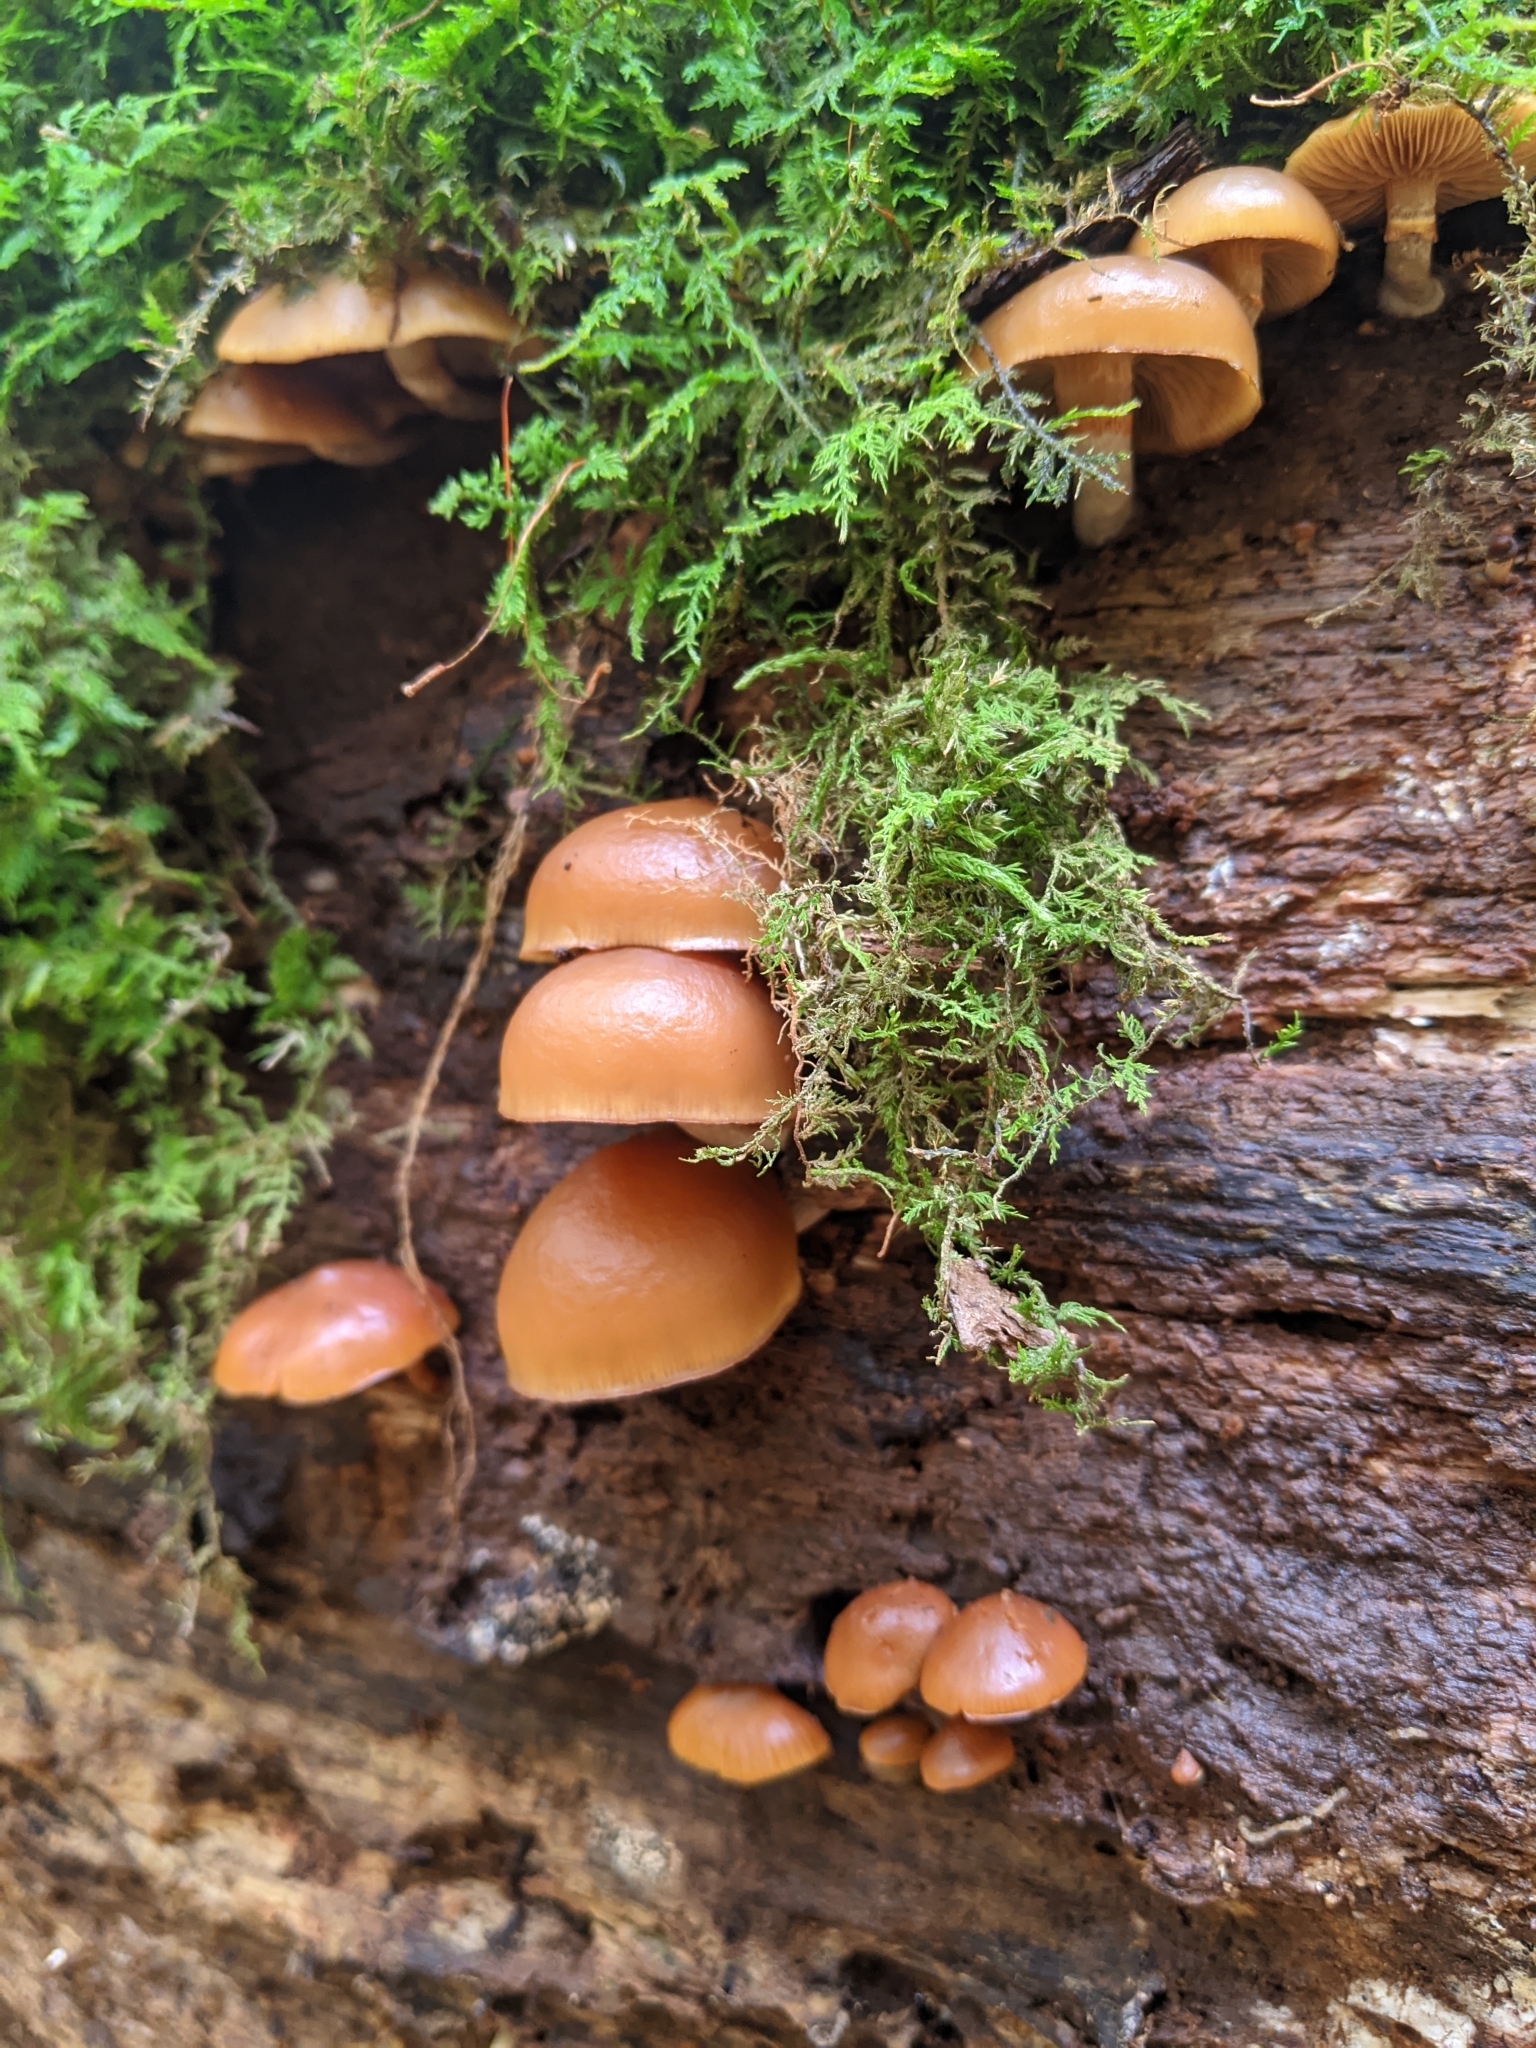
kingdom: Fungi
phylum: Basidiomycota
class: Agaricomycetes
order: Agaricales
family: Hymenogastraceae
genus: Galerina
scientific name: Galerina marginata
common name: Funeral bell
